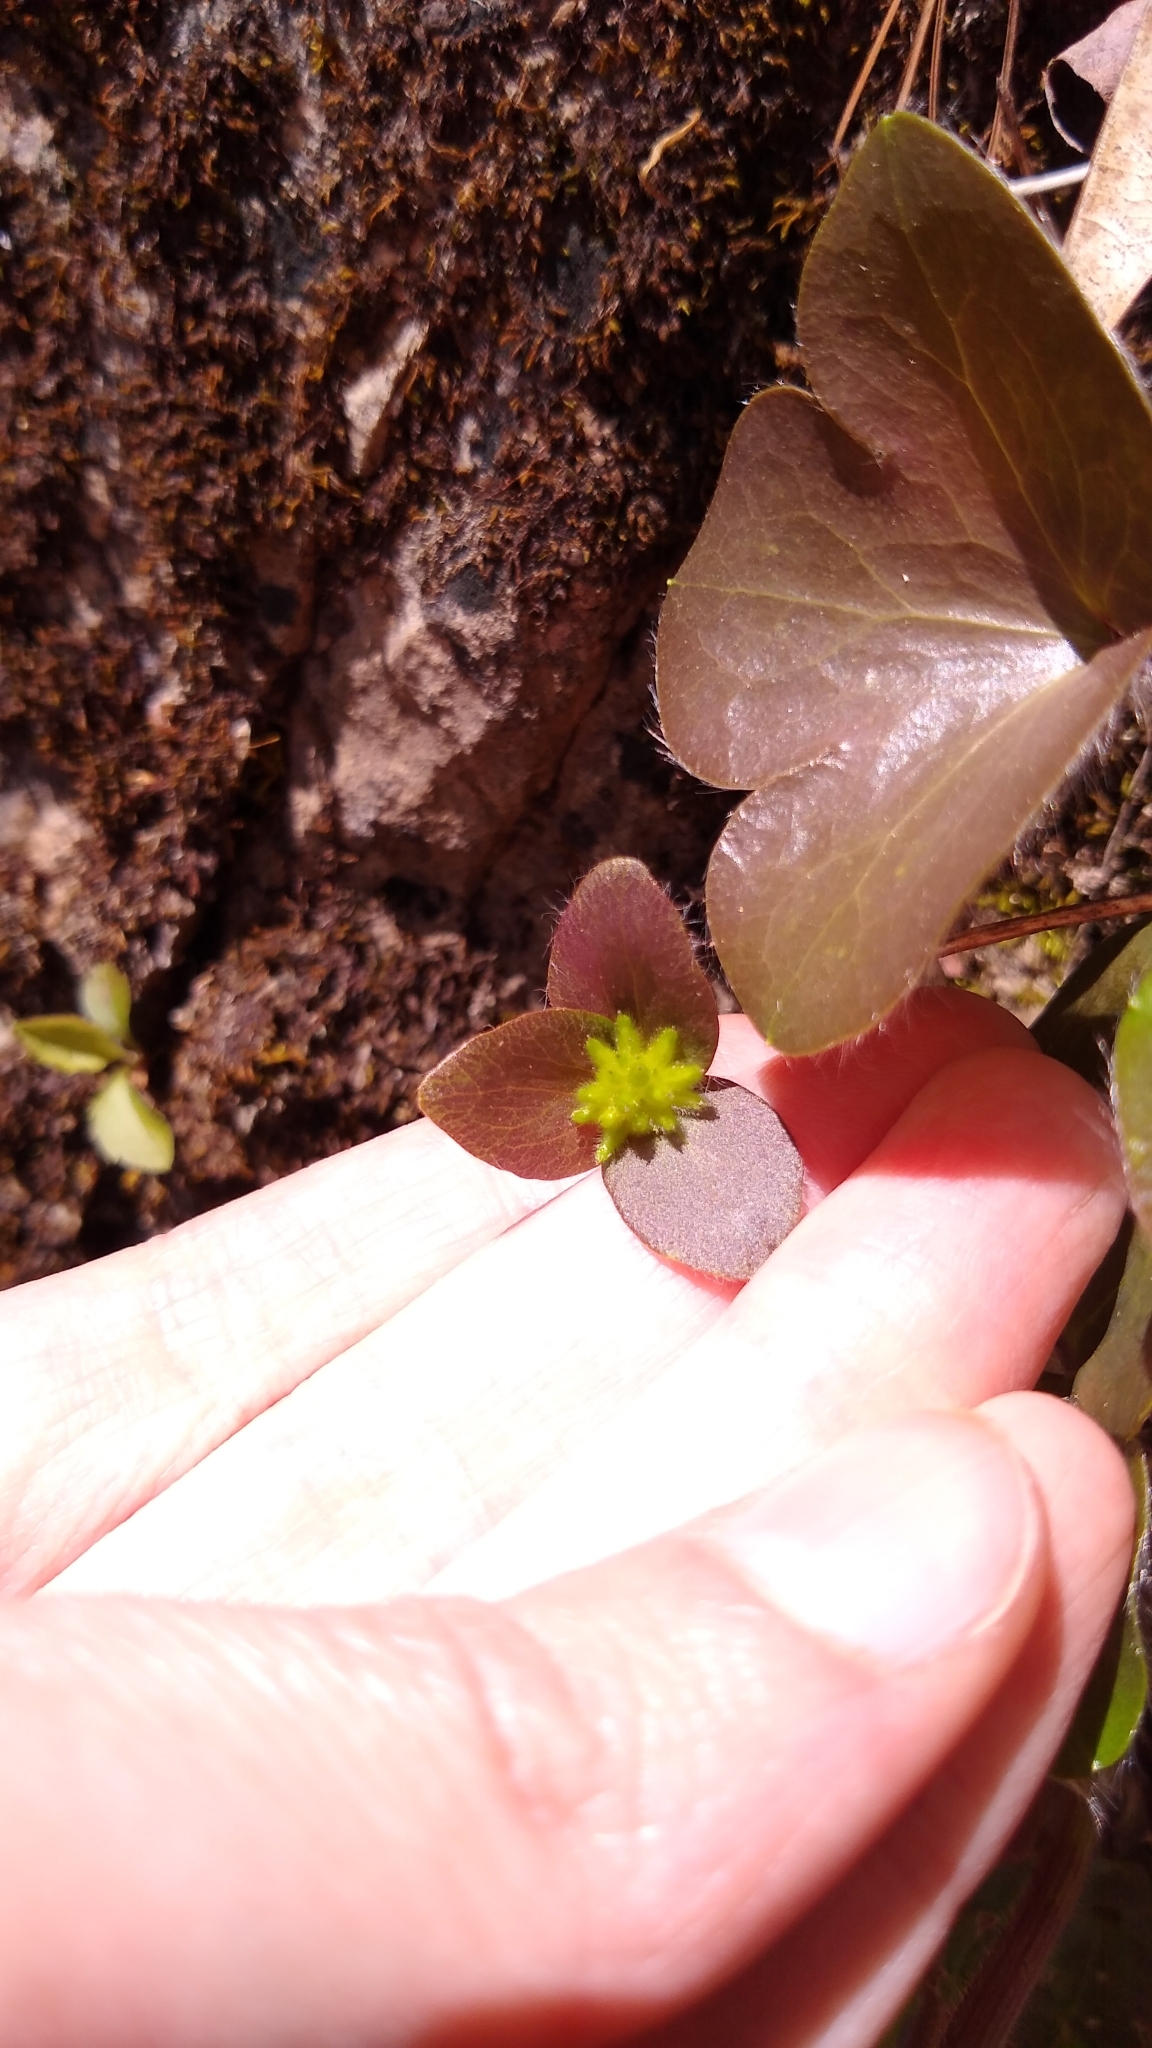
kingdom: Plantae
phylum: Tracheophyta
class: Magnoliopsida
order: Ranunculales
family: Ranunculaceae
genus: Hepatica
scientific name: Hepatica americana
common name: American hepatica
